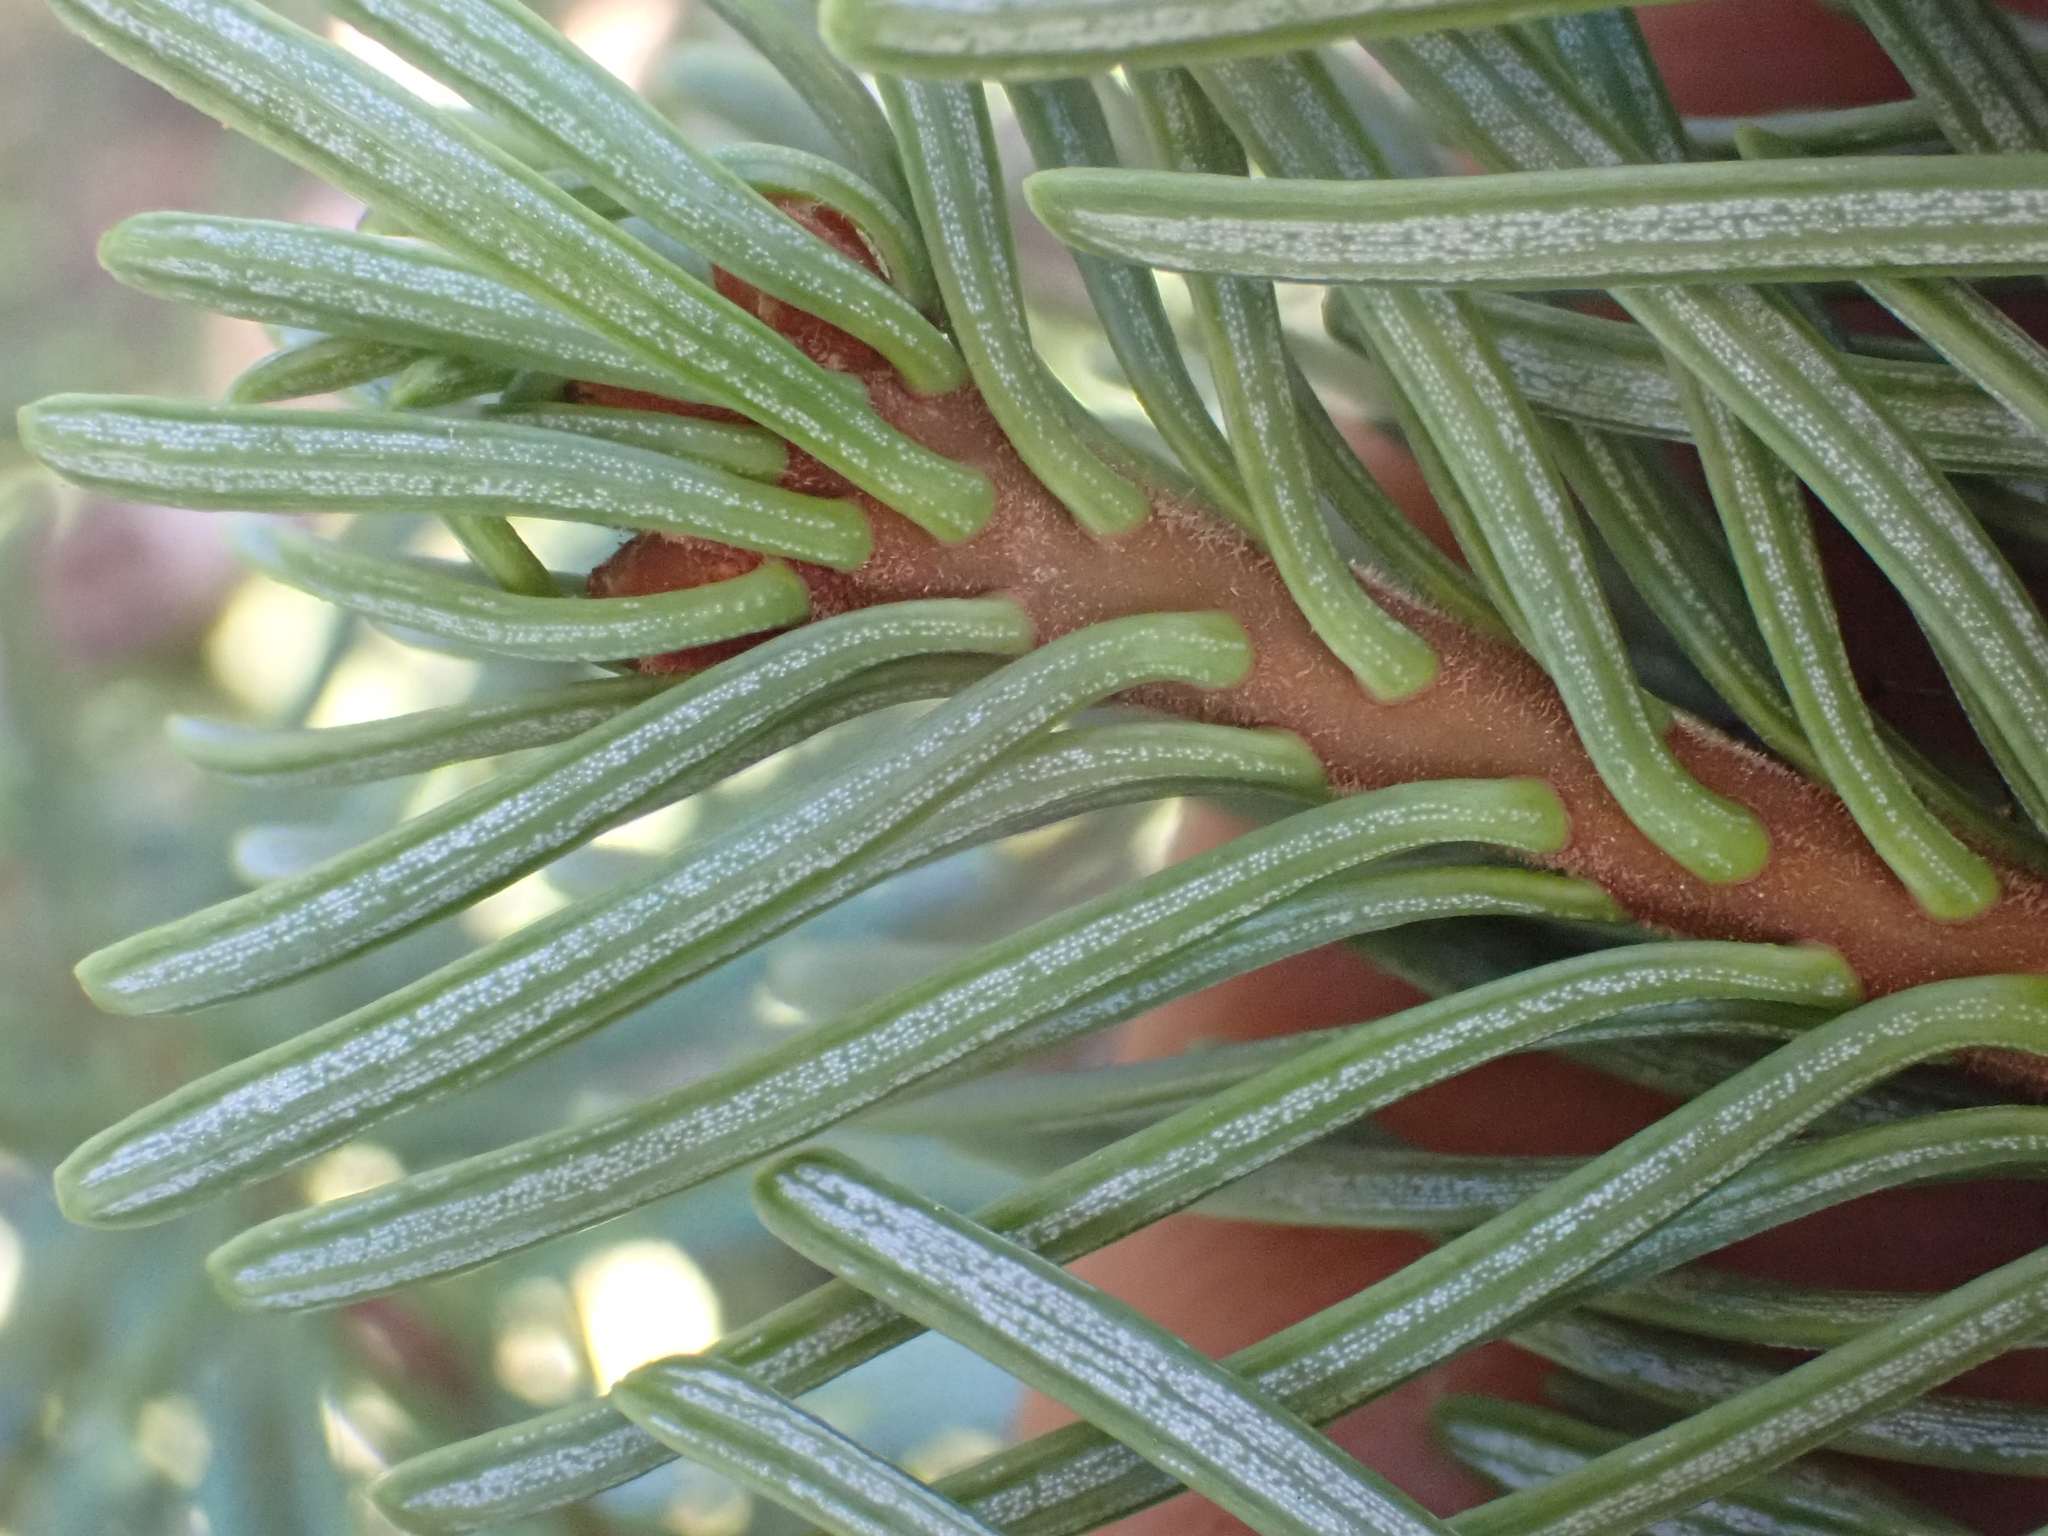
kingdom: Plantae
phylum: Tracheophyta
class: Pinopsida
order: Pinales
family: Pinaceae
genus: Abies
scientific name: Abies magnifica bis
